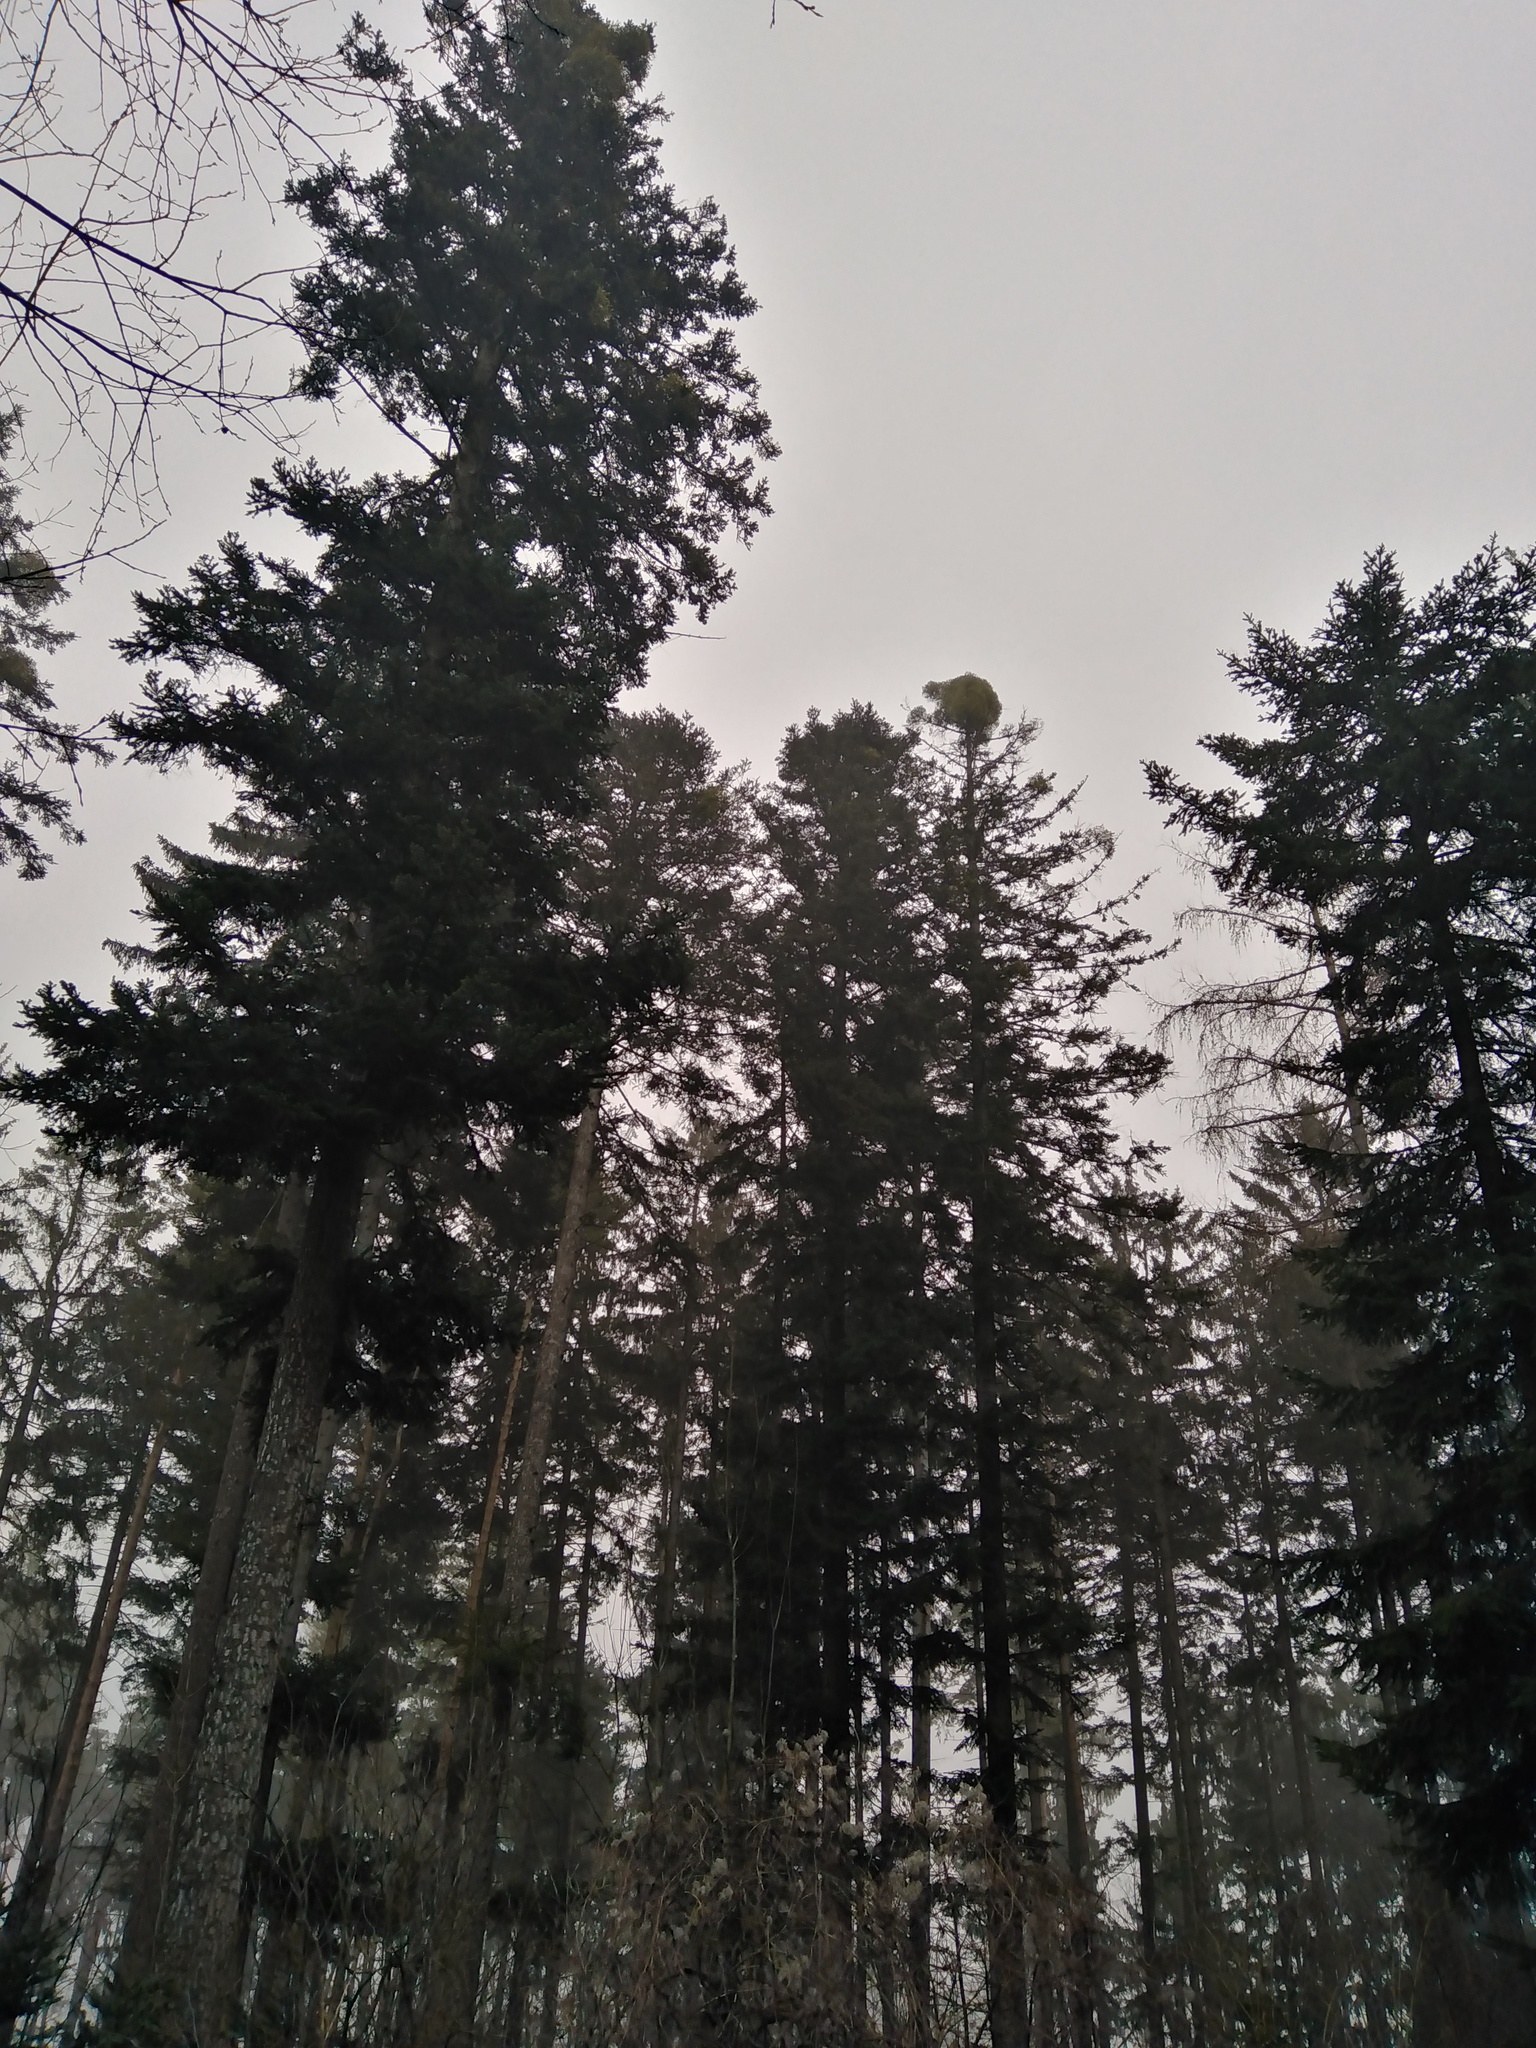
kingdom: Plantae
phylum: Tracheophyta
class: Magnoliopsida
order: Santalales
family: Viscaceae
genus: Viscum
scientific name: Viscum album
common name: Mistletoe
